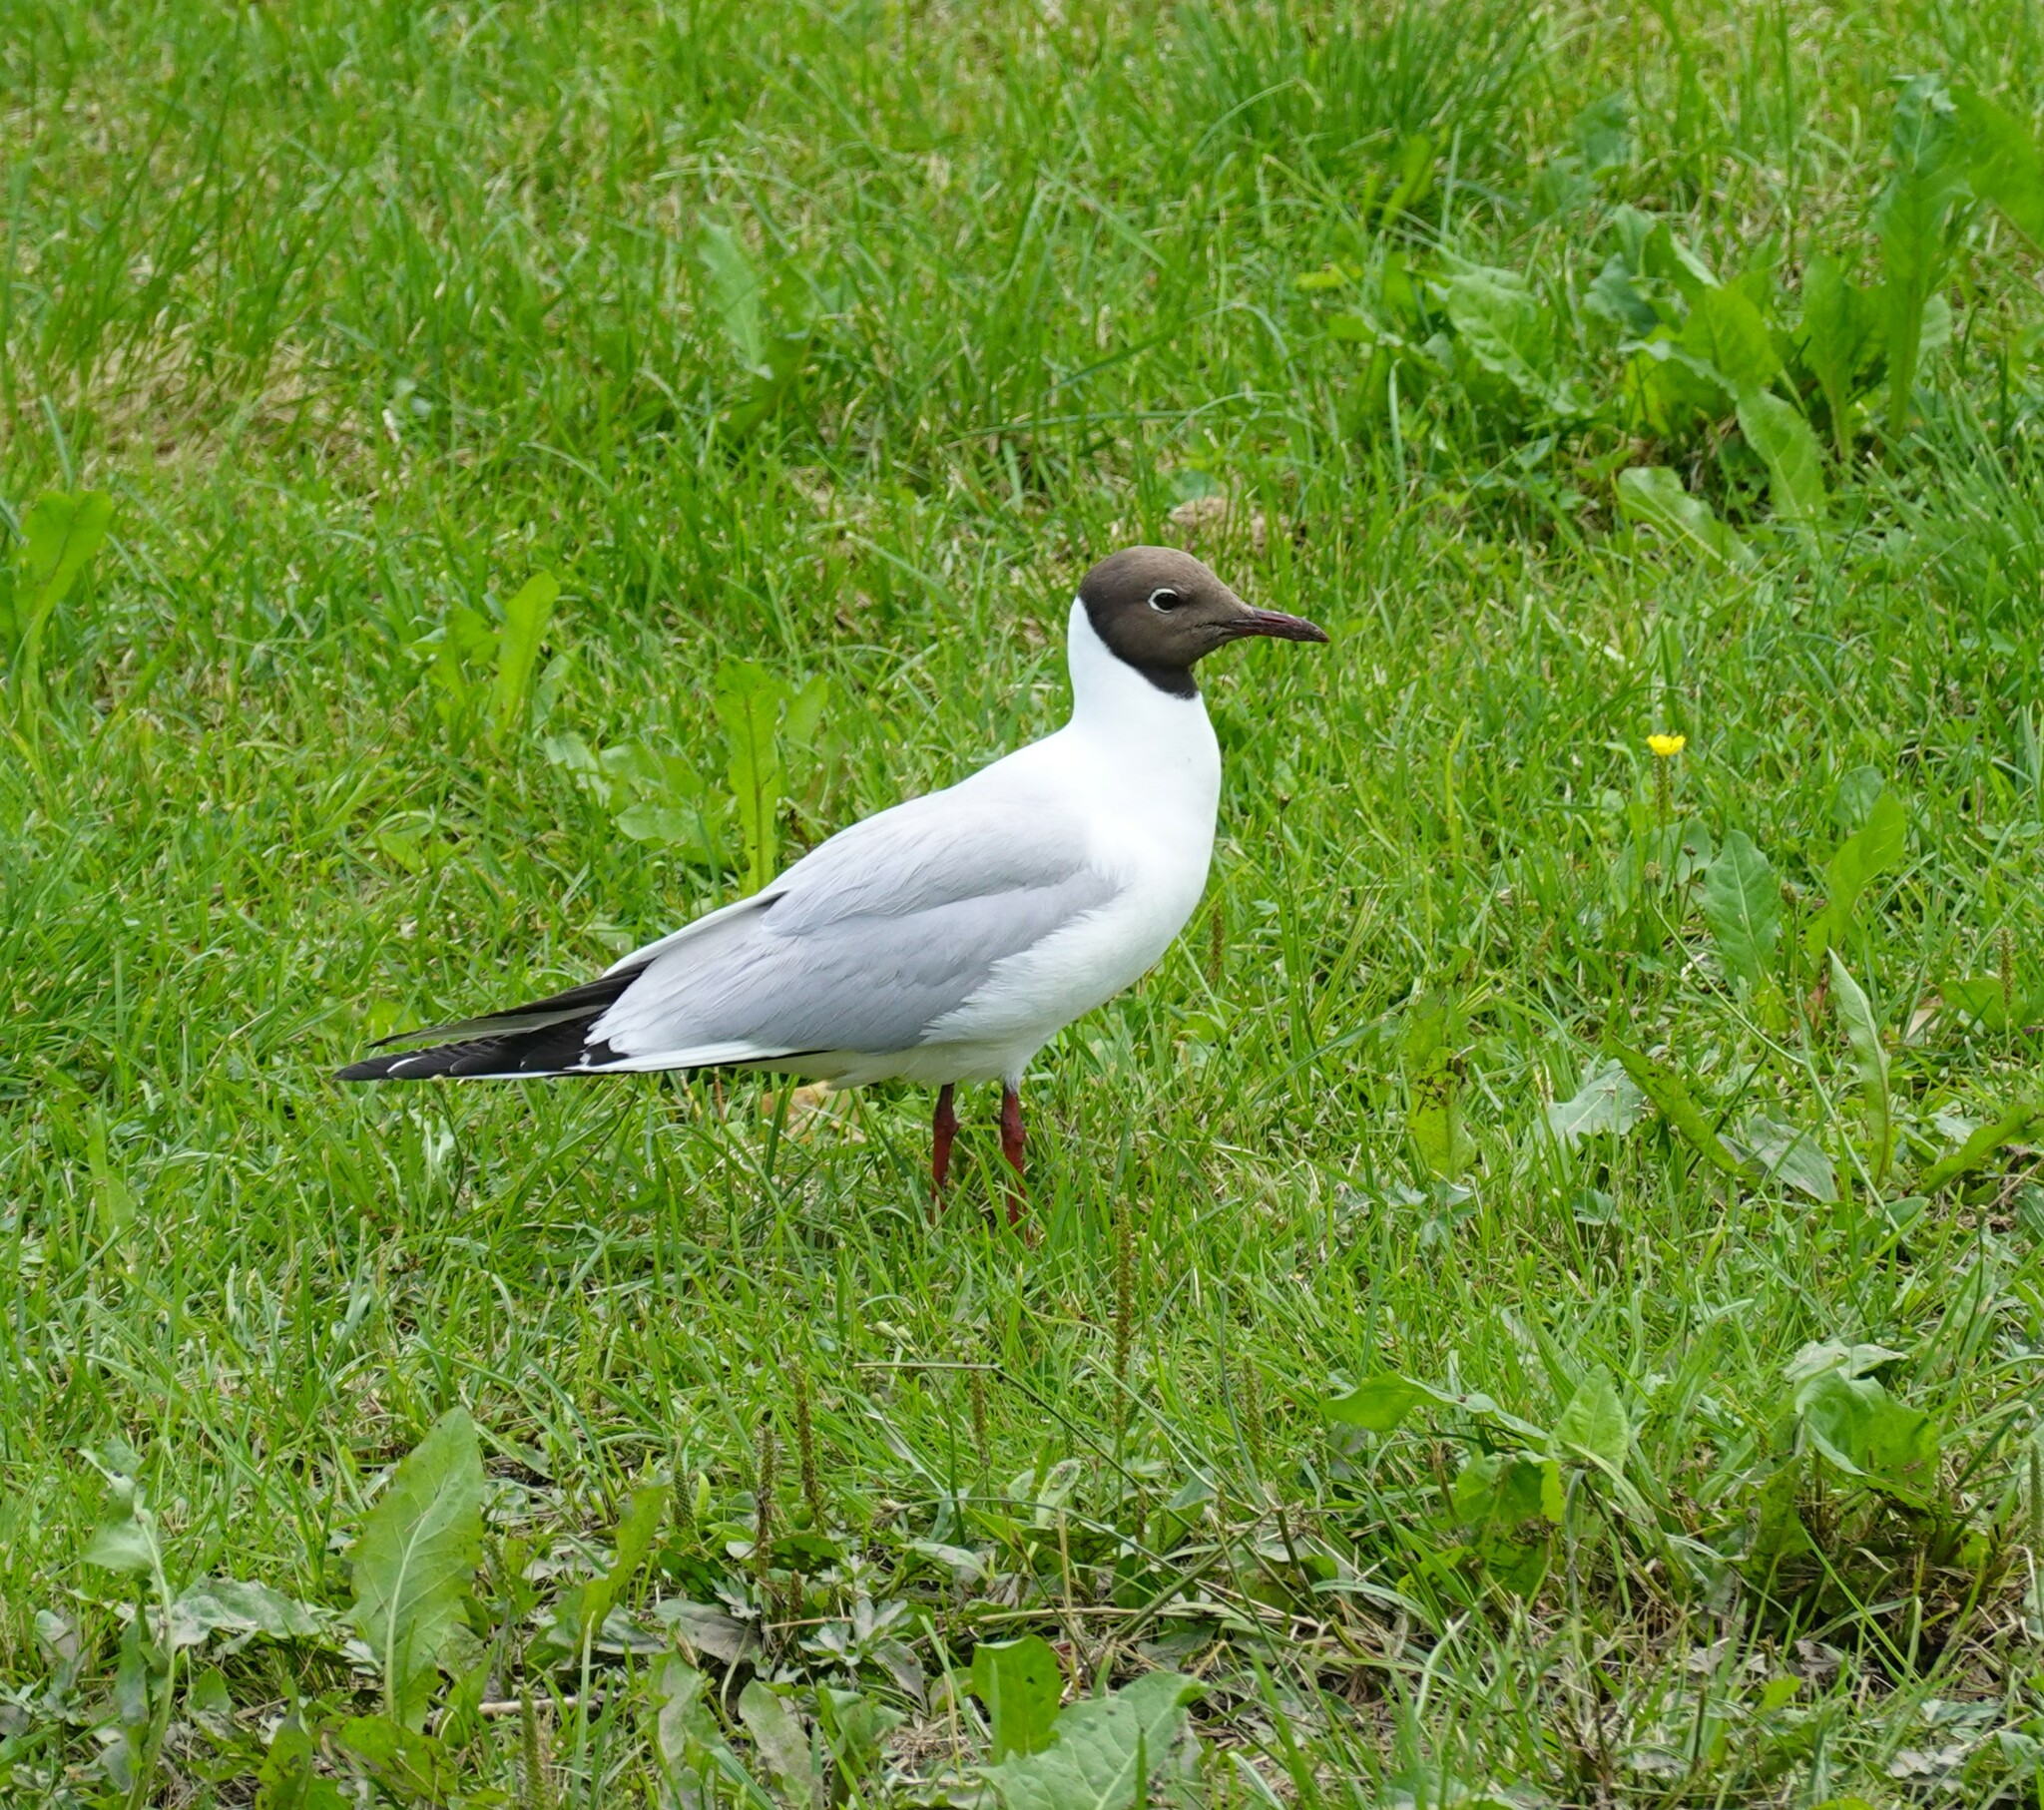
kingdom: Animalia
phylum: Chordata
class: Aves
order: Charadriiformes
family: Laridae
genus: Chroicocephalus
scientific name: Chroicocephalus ridibundus
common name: Black-headed gull
